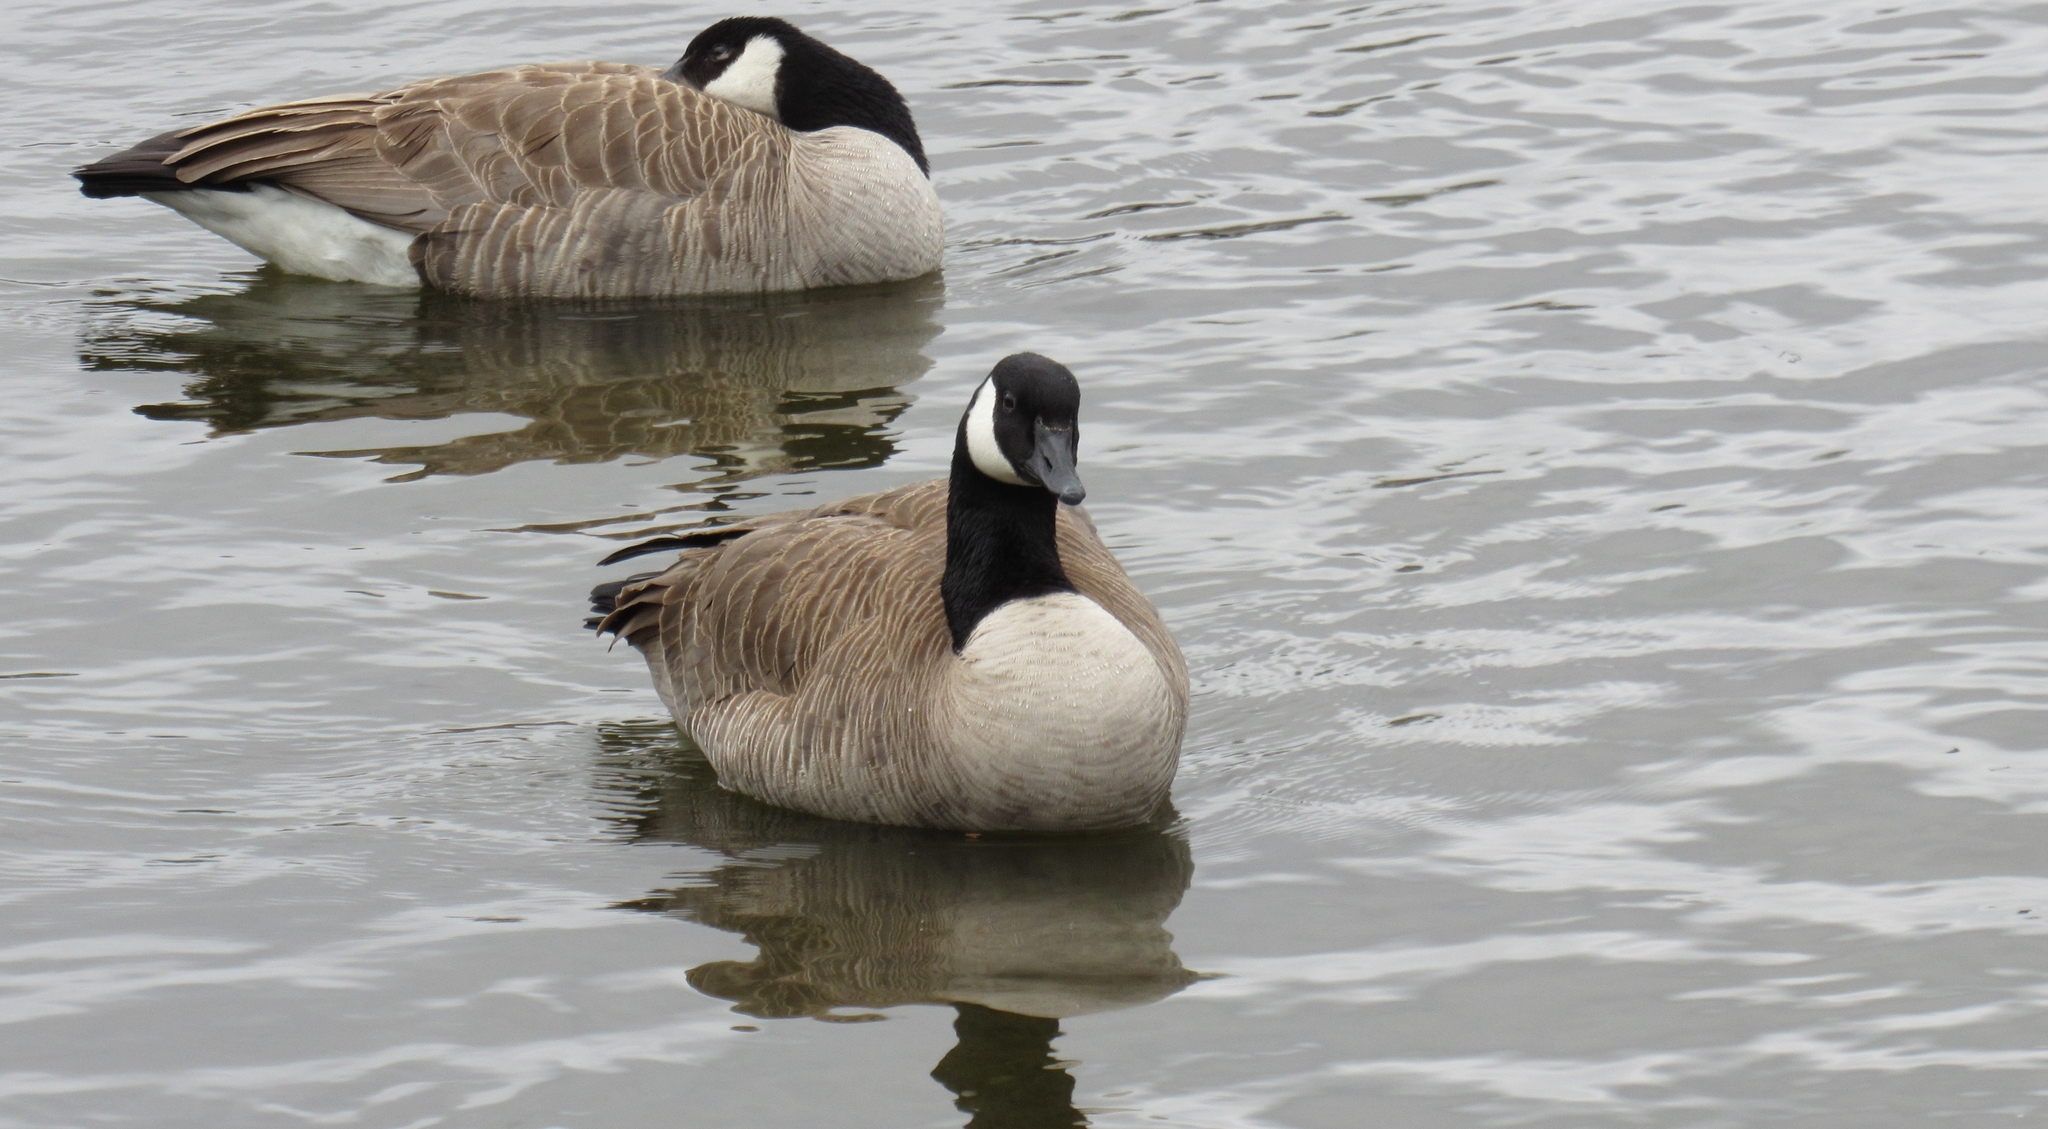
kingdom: Animalia
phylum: Chordata
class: Aves
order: Anseriformes
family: Anatidae
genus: Branta
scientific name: Branta canadensis
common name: Canada goose
